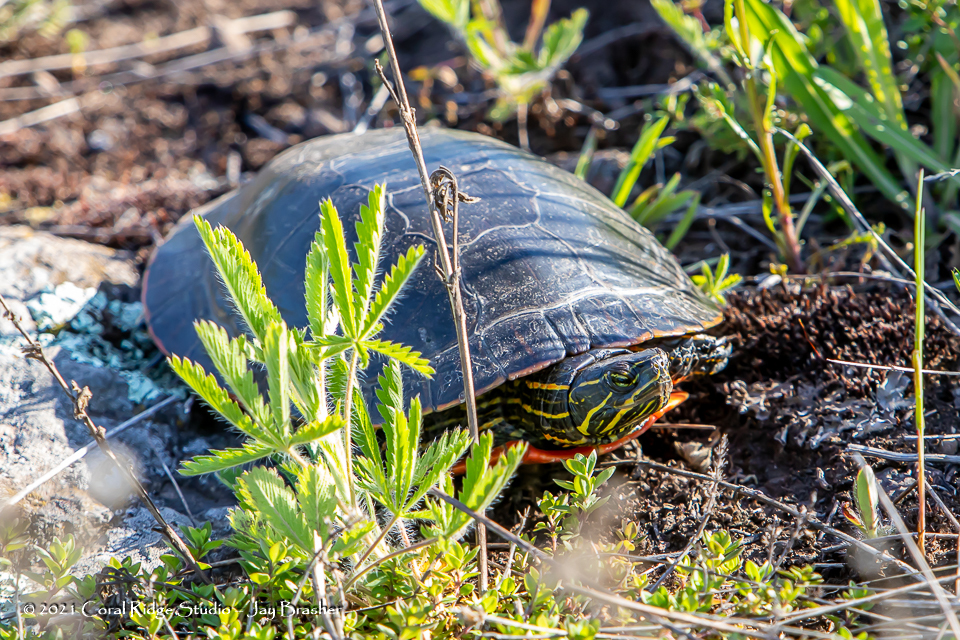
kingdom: Animalia
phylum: Chordata
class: Testudines
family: Emydidae
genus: Chrysemys
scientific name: Chrysemys picta
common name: Painted turtle
